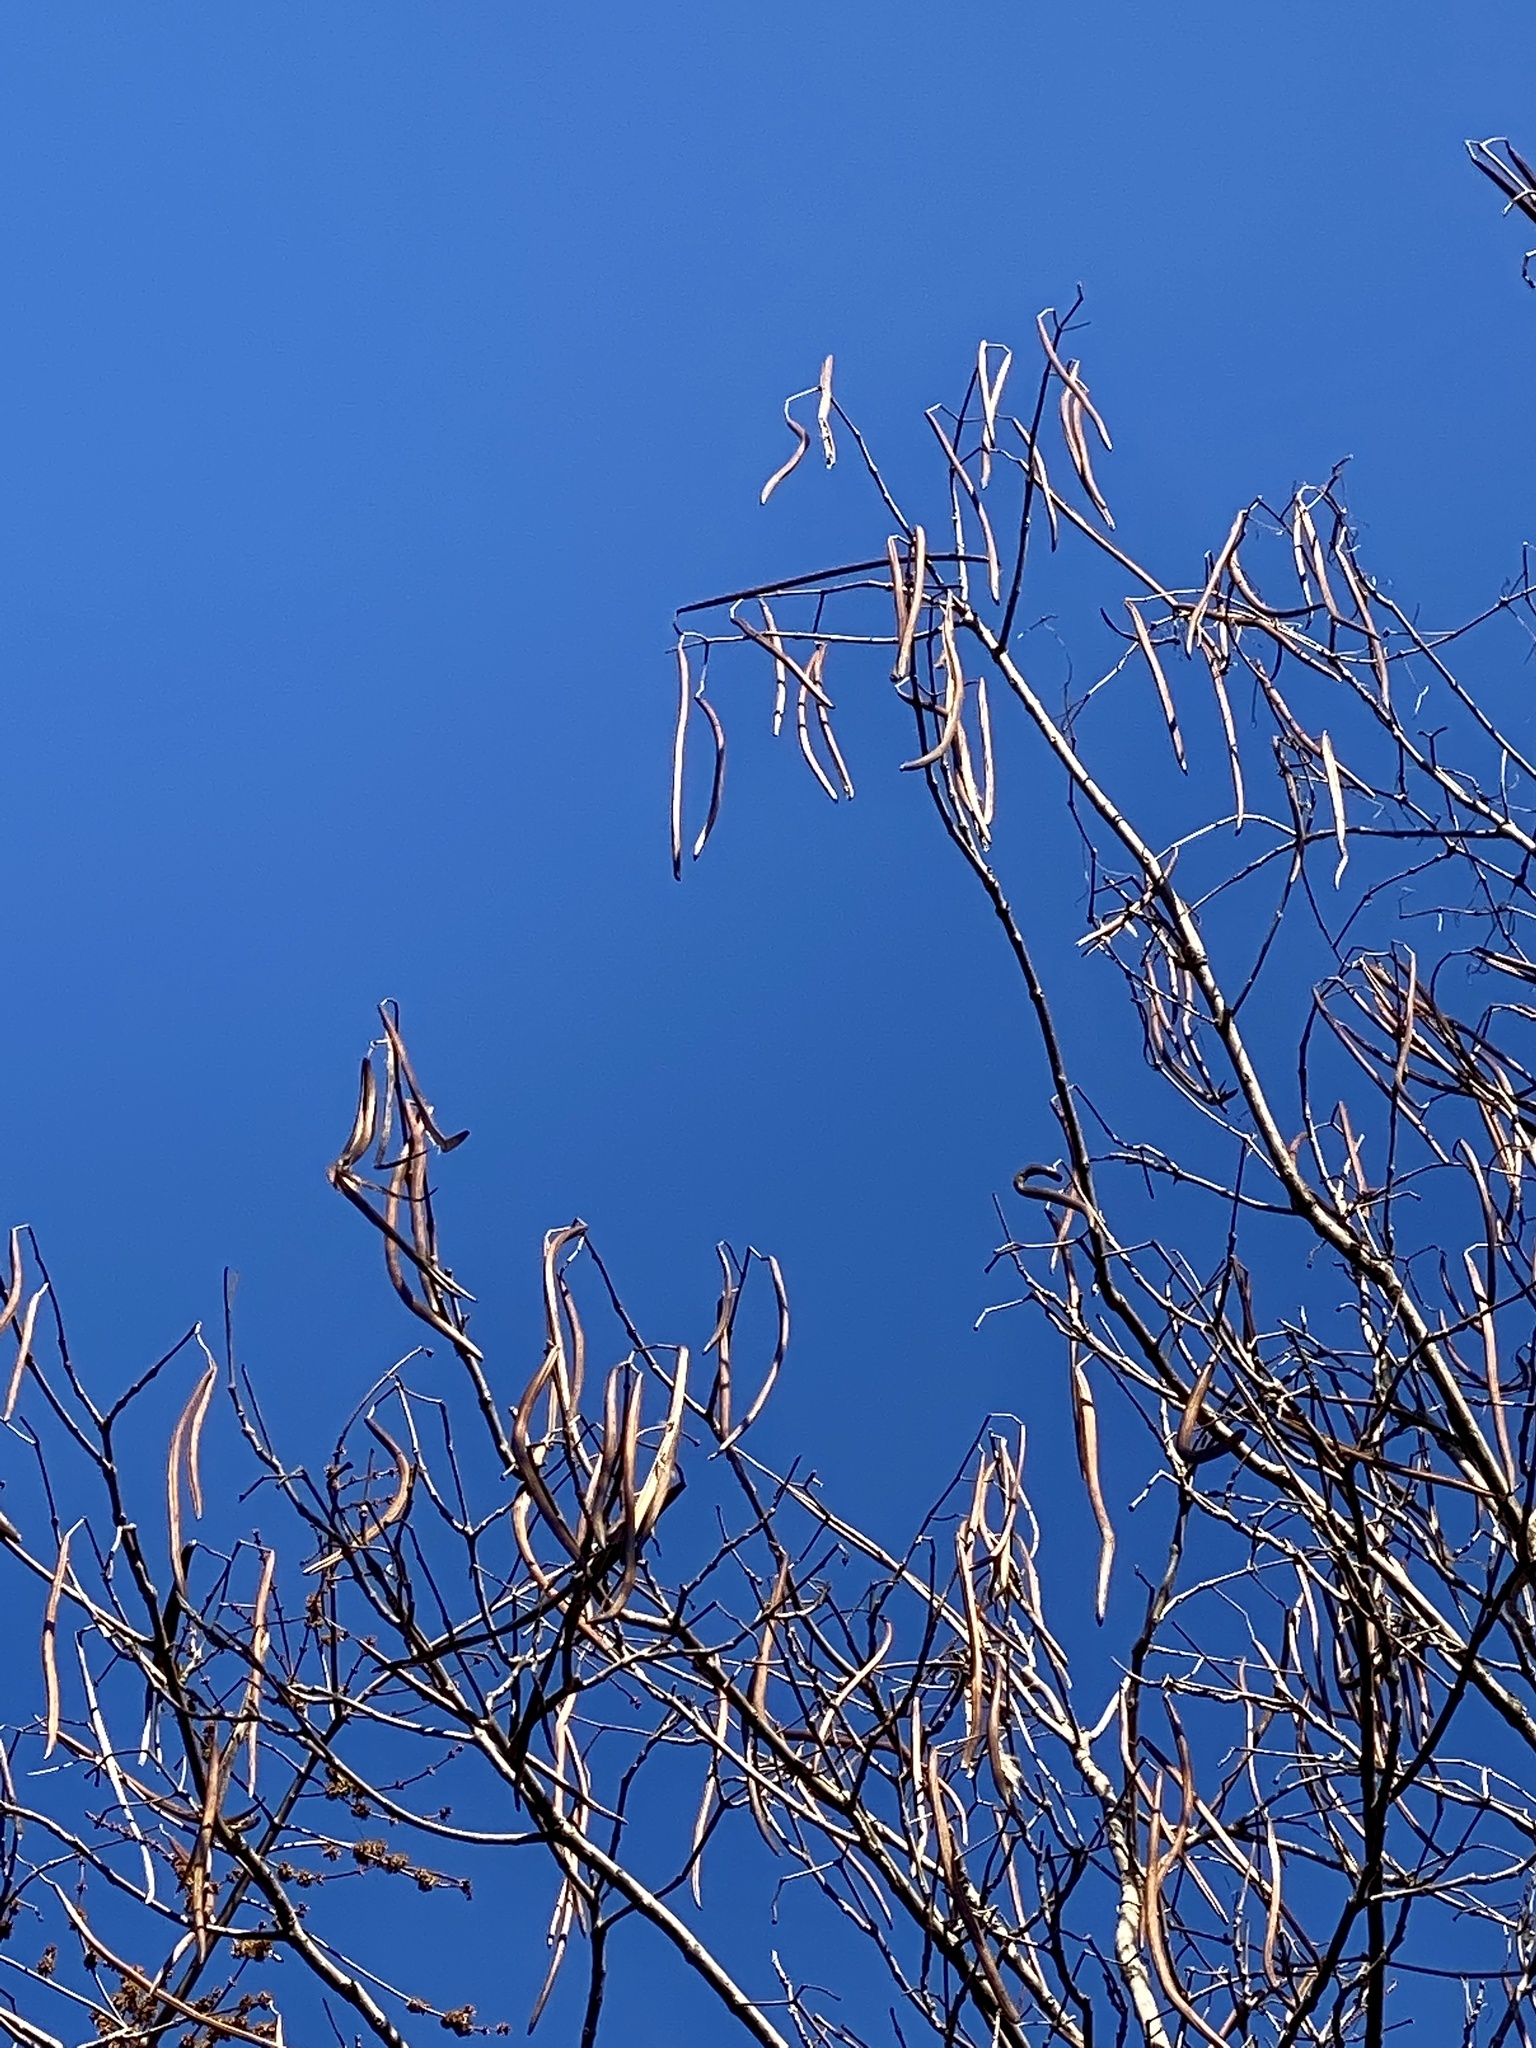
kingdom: Plantae
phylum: Tracheophyta
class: Magnoliopsida
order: Lamiales
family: Bignoniaceae
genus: Catalpa
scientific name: Catalpa
